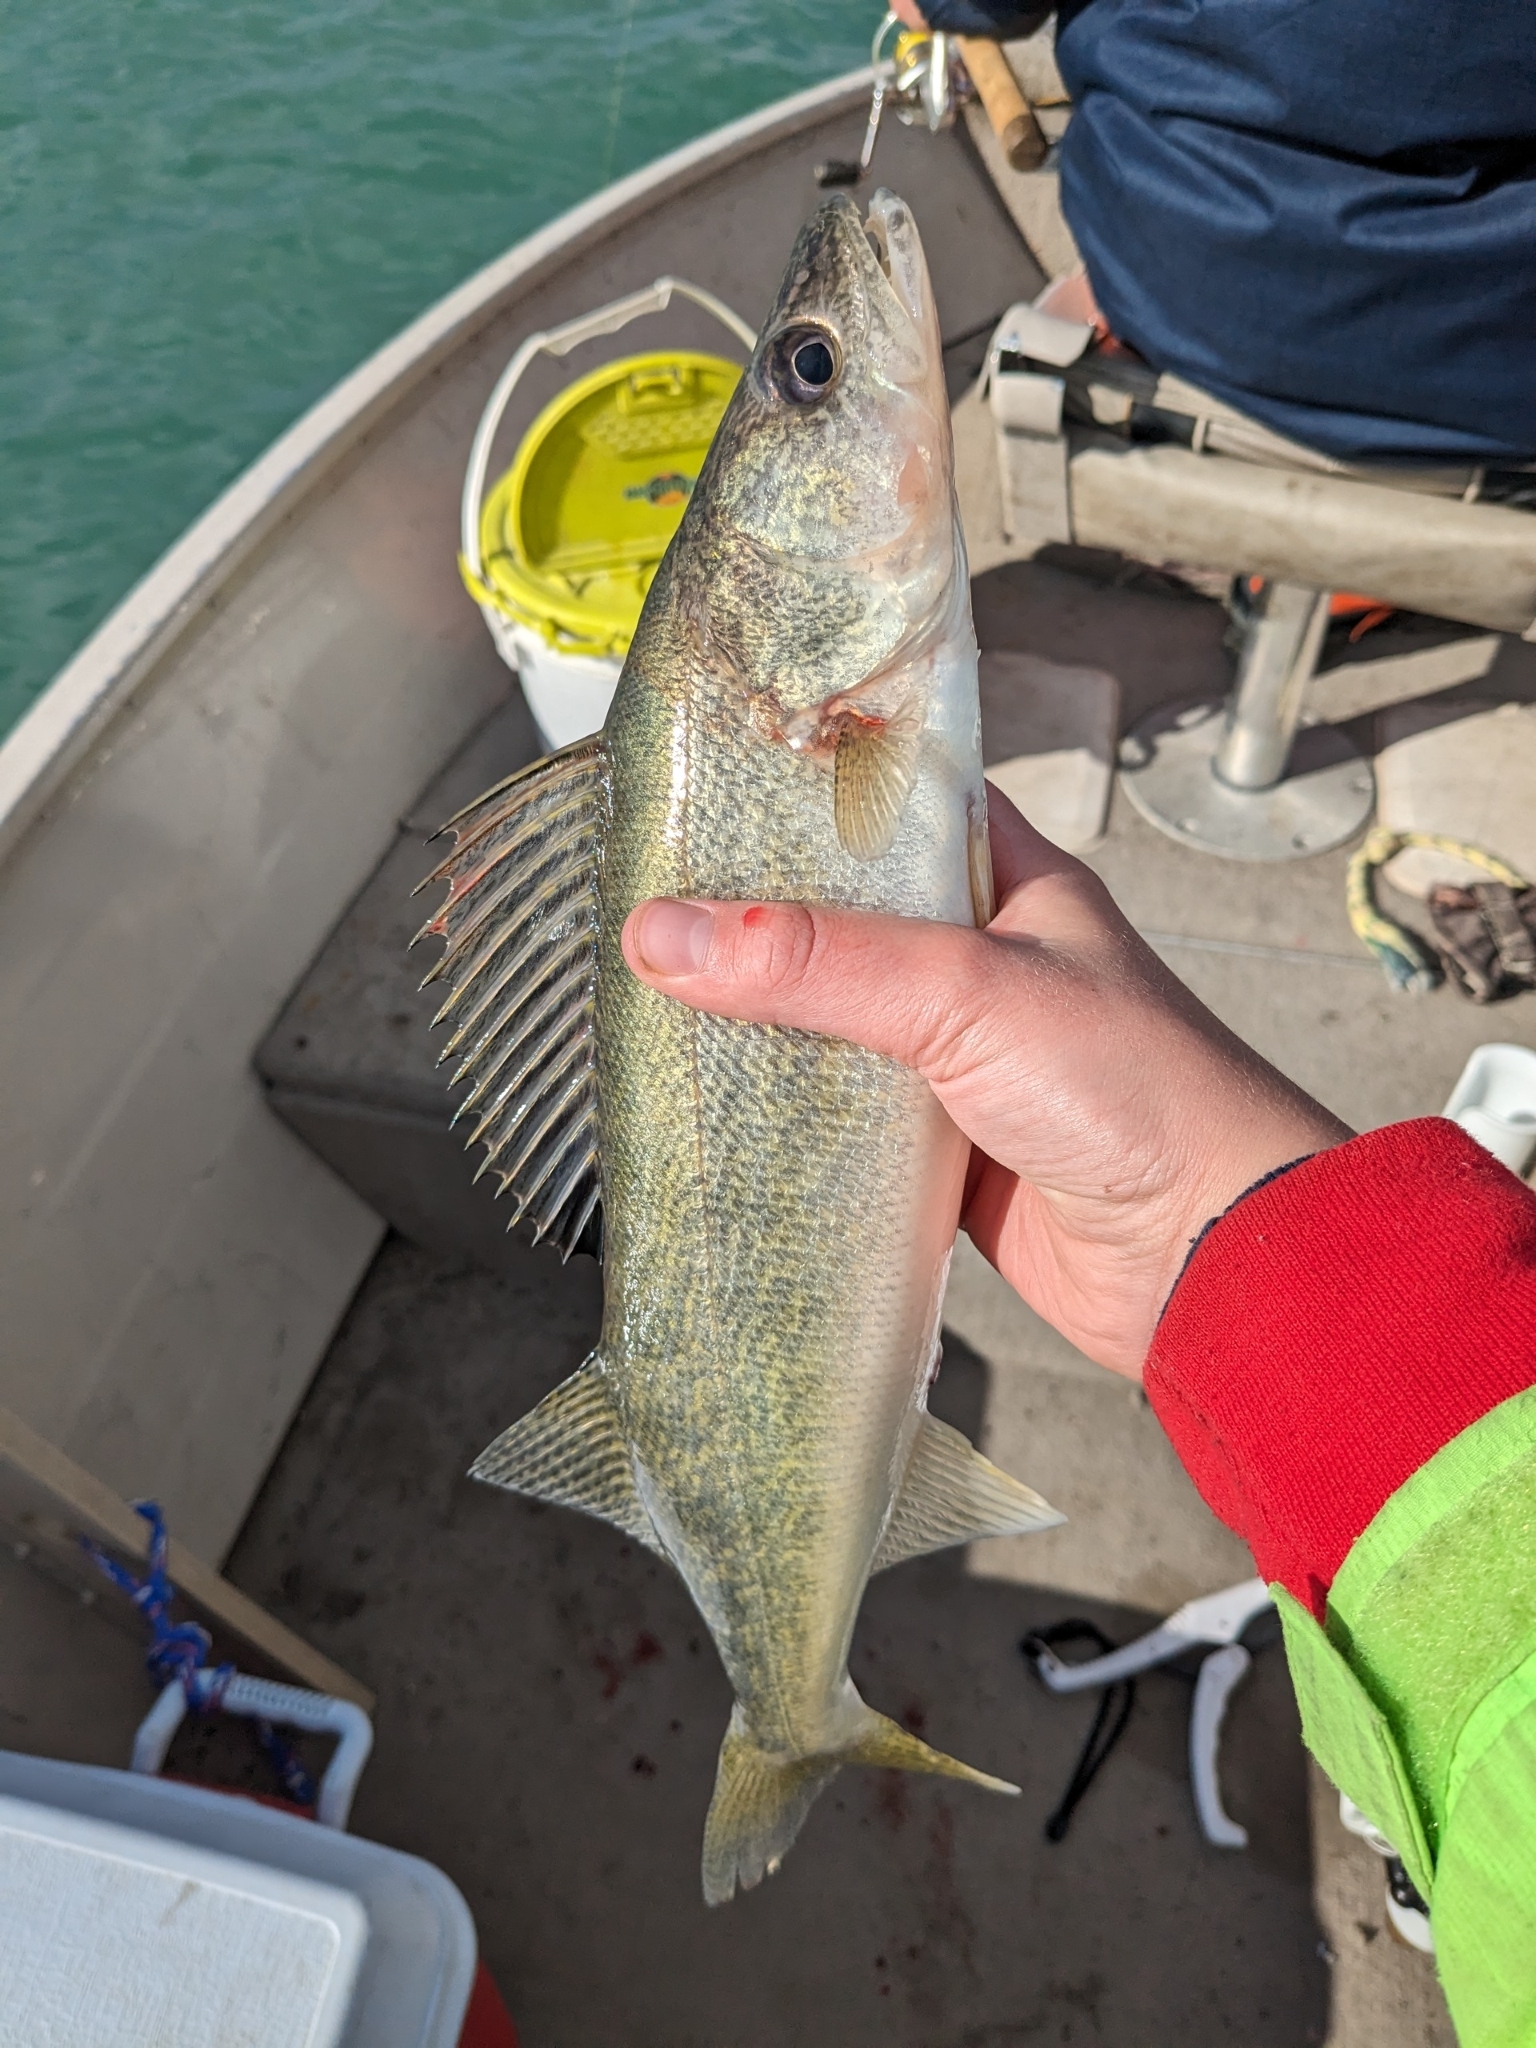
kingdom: Animalia
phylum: Chordata
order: Perciformes
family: Percidae
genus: Sander
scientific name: Sander vitreus
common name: Walleye
